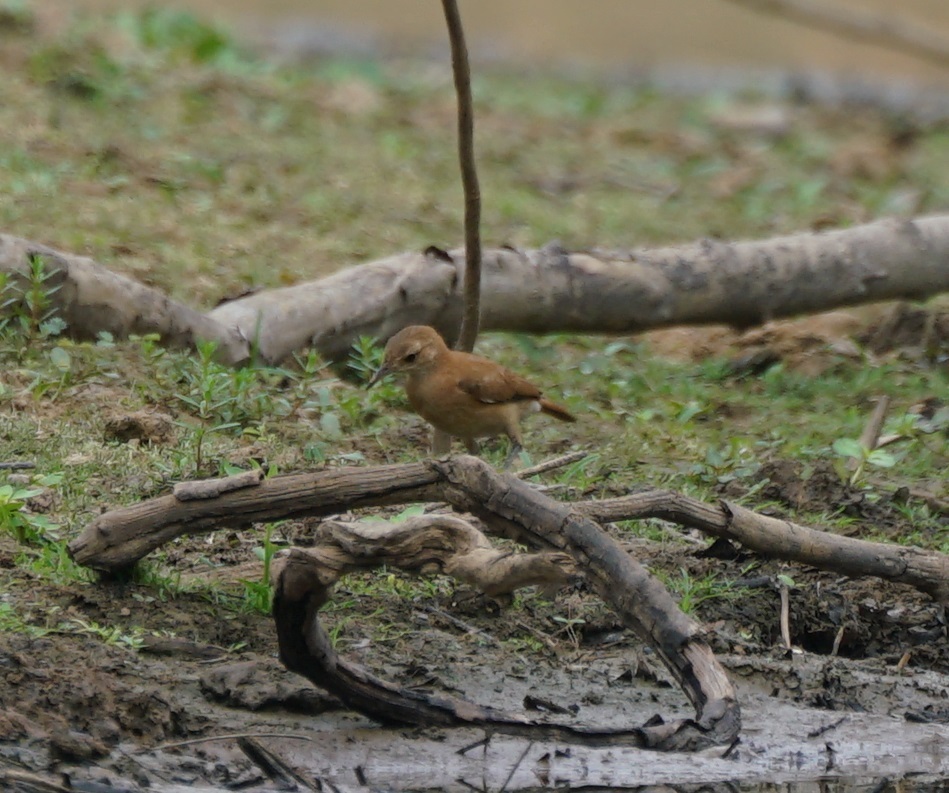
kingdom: Animalia
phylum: Chordata
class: Aves
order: Passeriformes
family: Furnariidae
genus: Furnarius
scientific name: Furnarius rufus
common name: Rufous hornero
